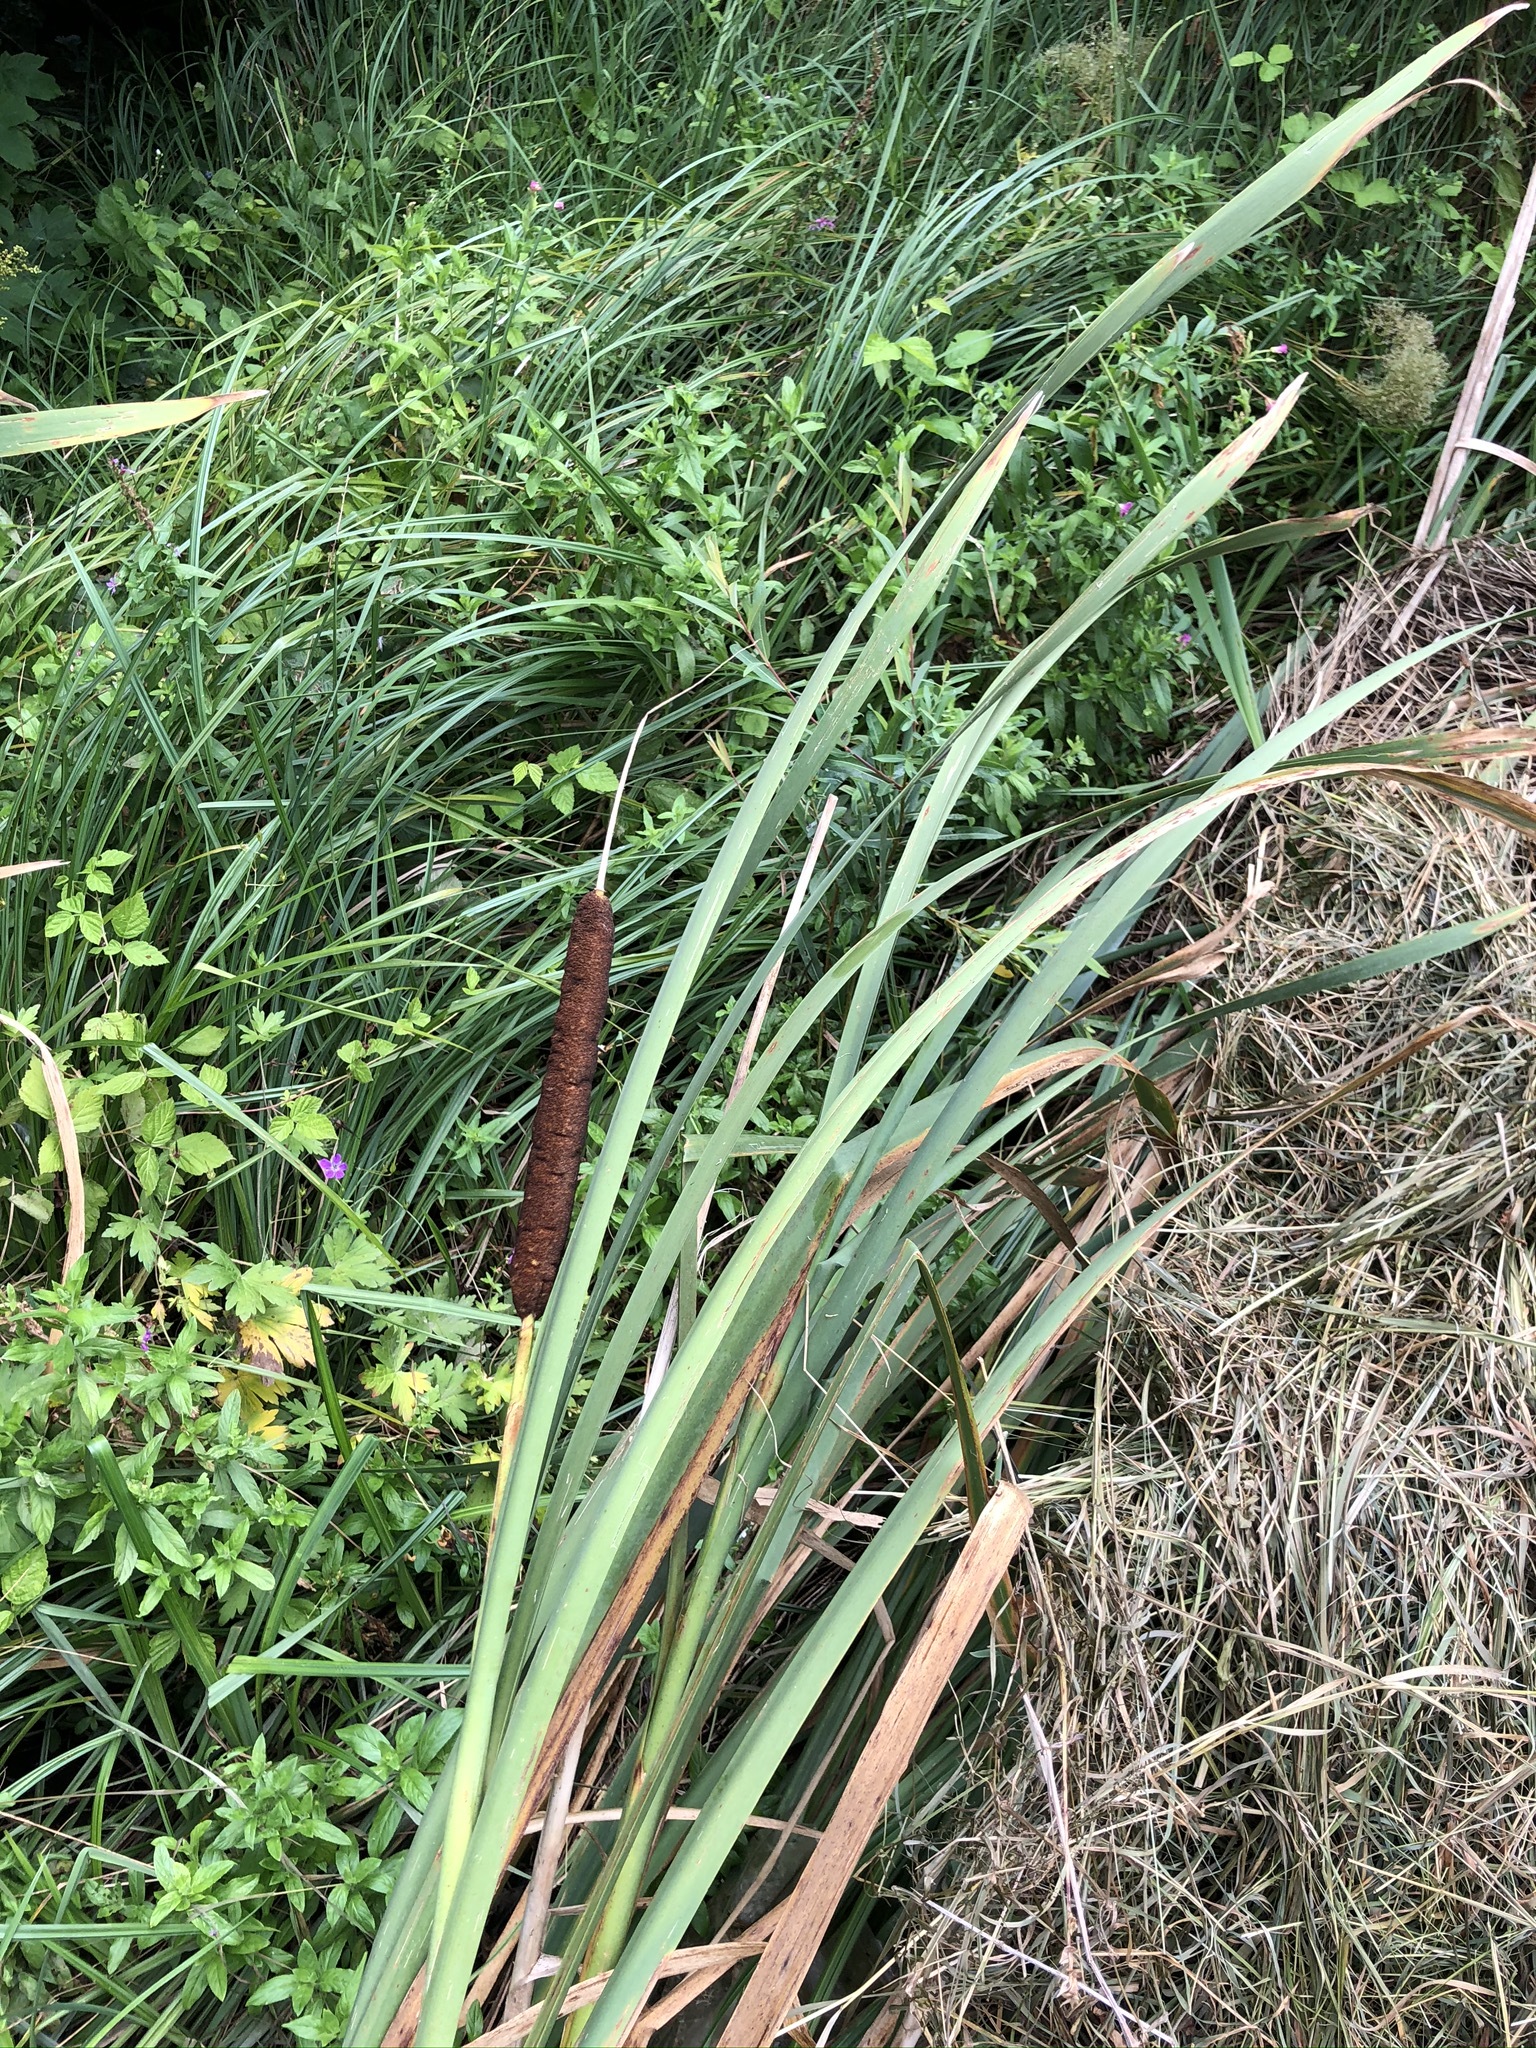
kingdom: Plantae
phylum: Tracheophyta
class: Liliopsida
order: Poales
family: Typhaceae
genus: Typha
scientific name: Typha latifolia
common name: Broadleaf cattail
